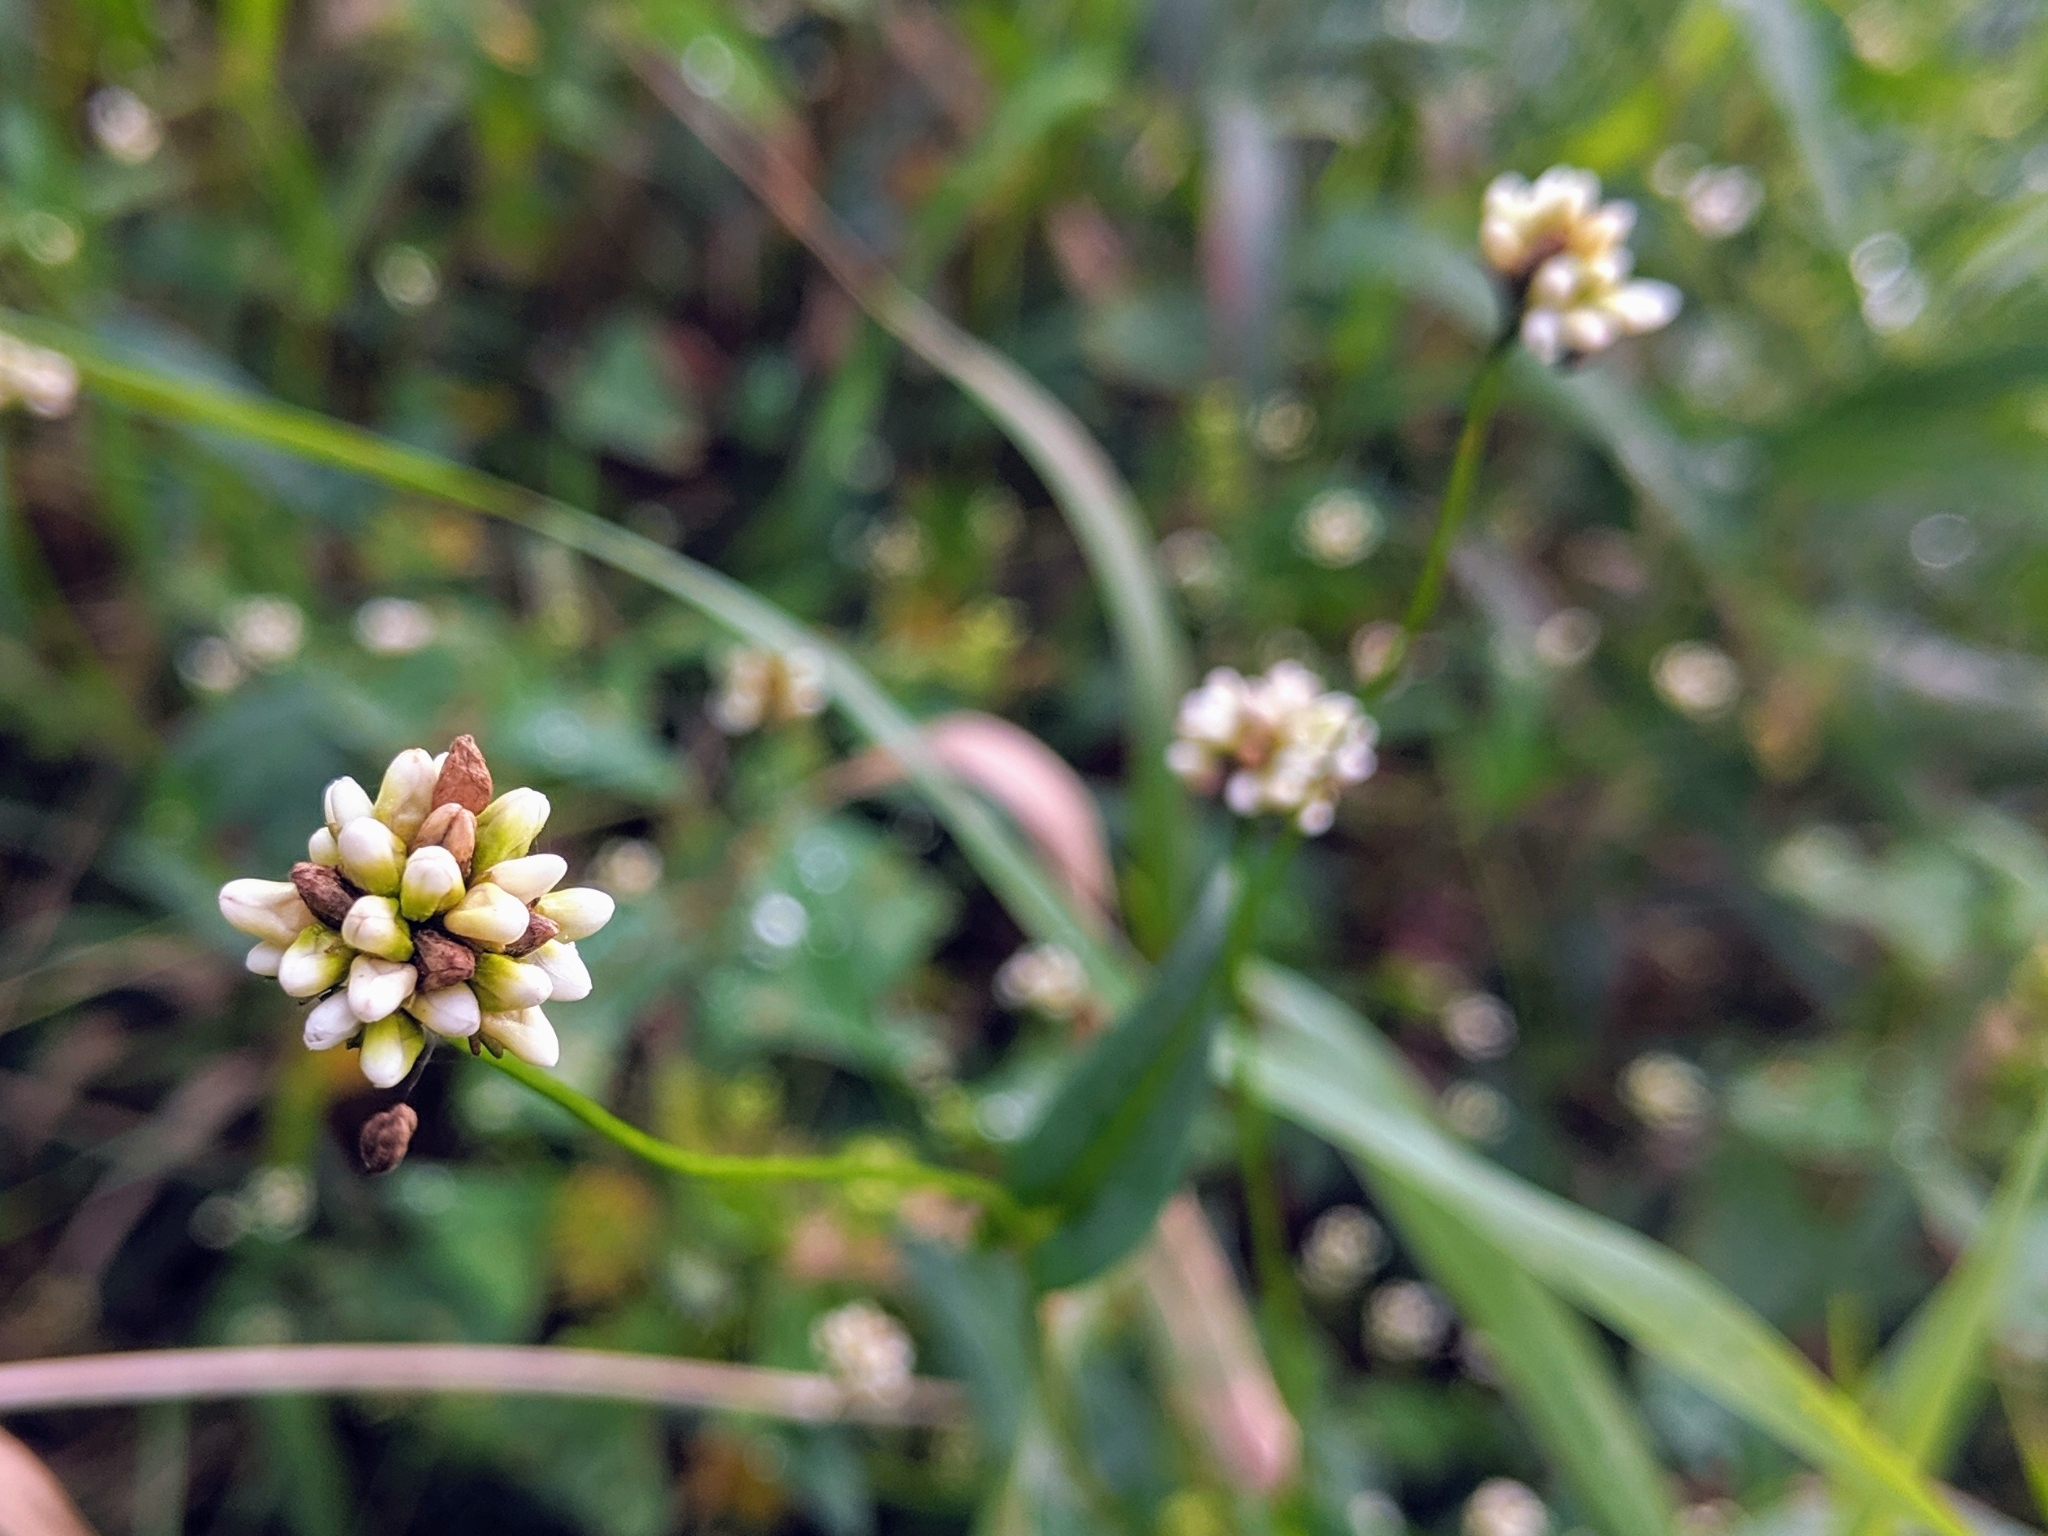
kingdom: Plantae
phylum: Tracheophyta
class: Magnoliopsida
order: Caryophyllales
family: Polygonaceae
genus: Persicaria
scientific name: Persicaria sagittata
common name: American tearthumb
